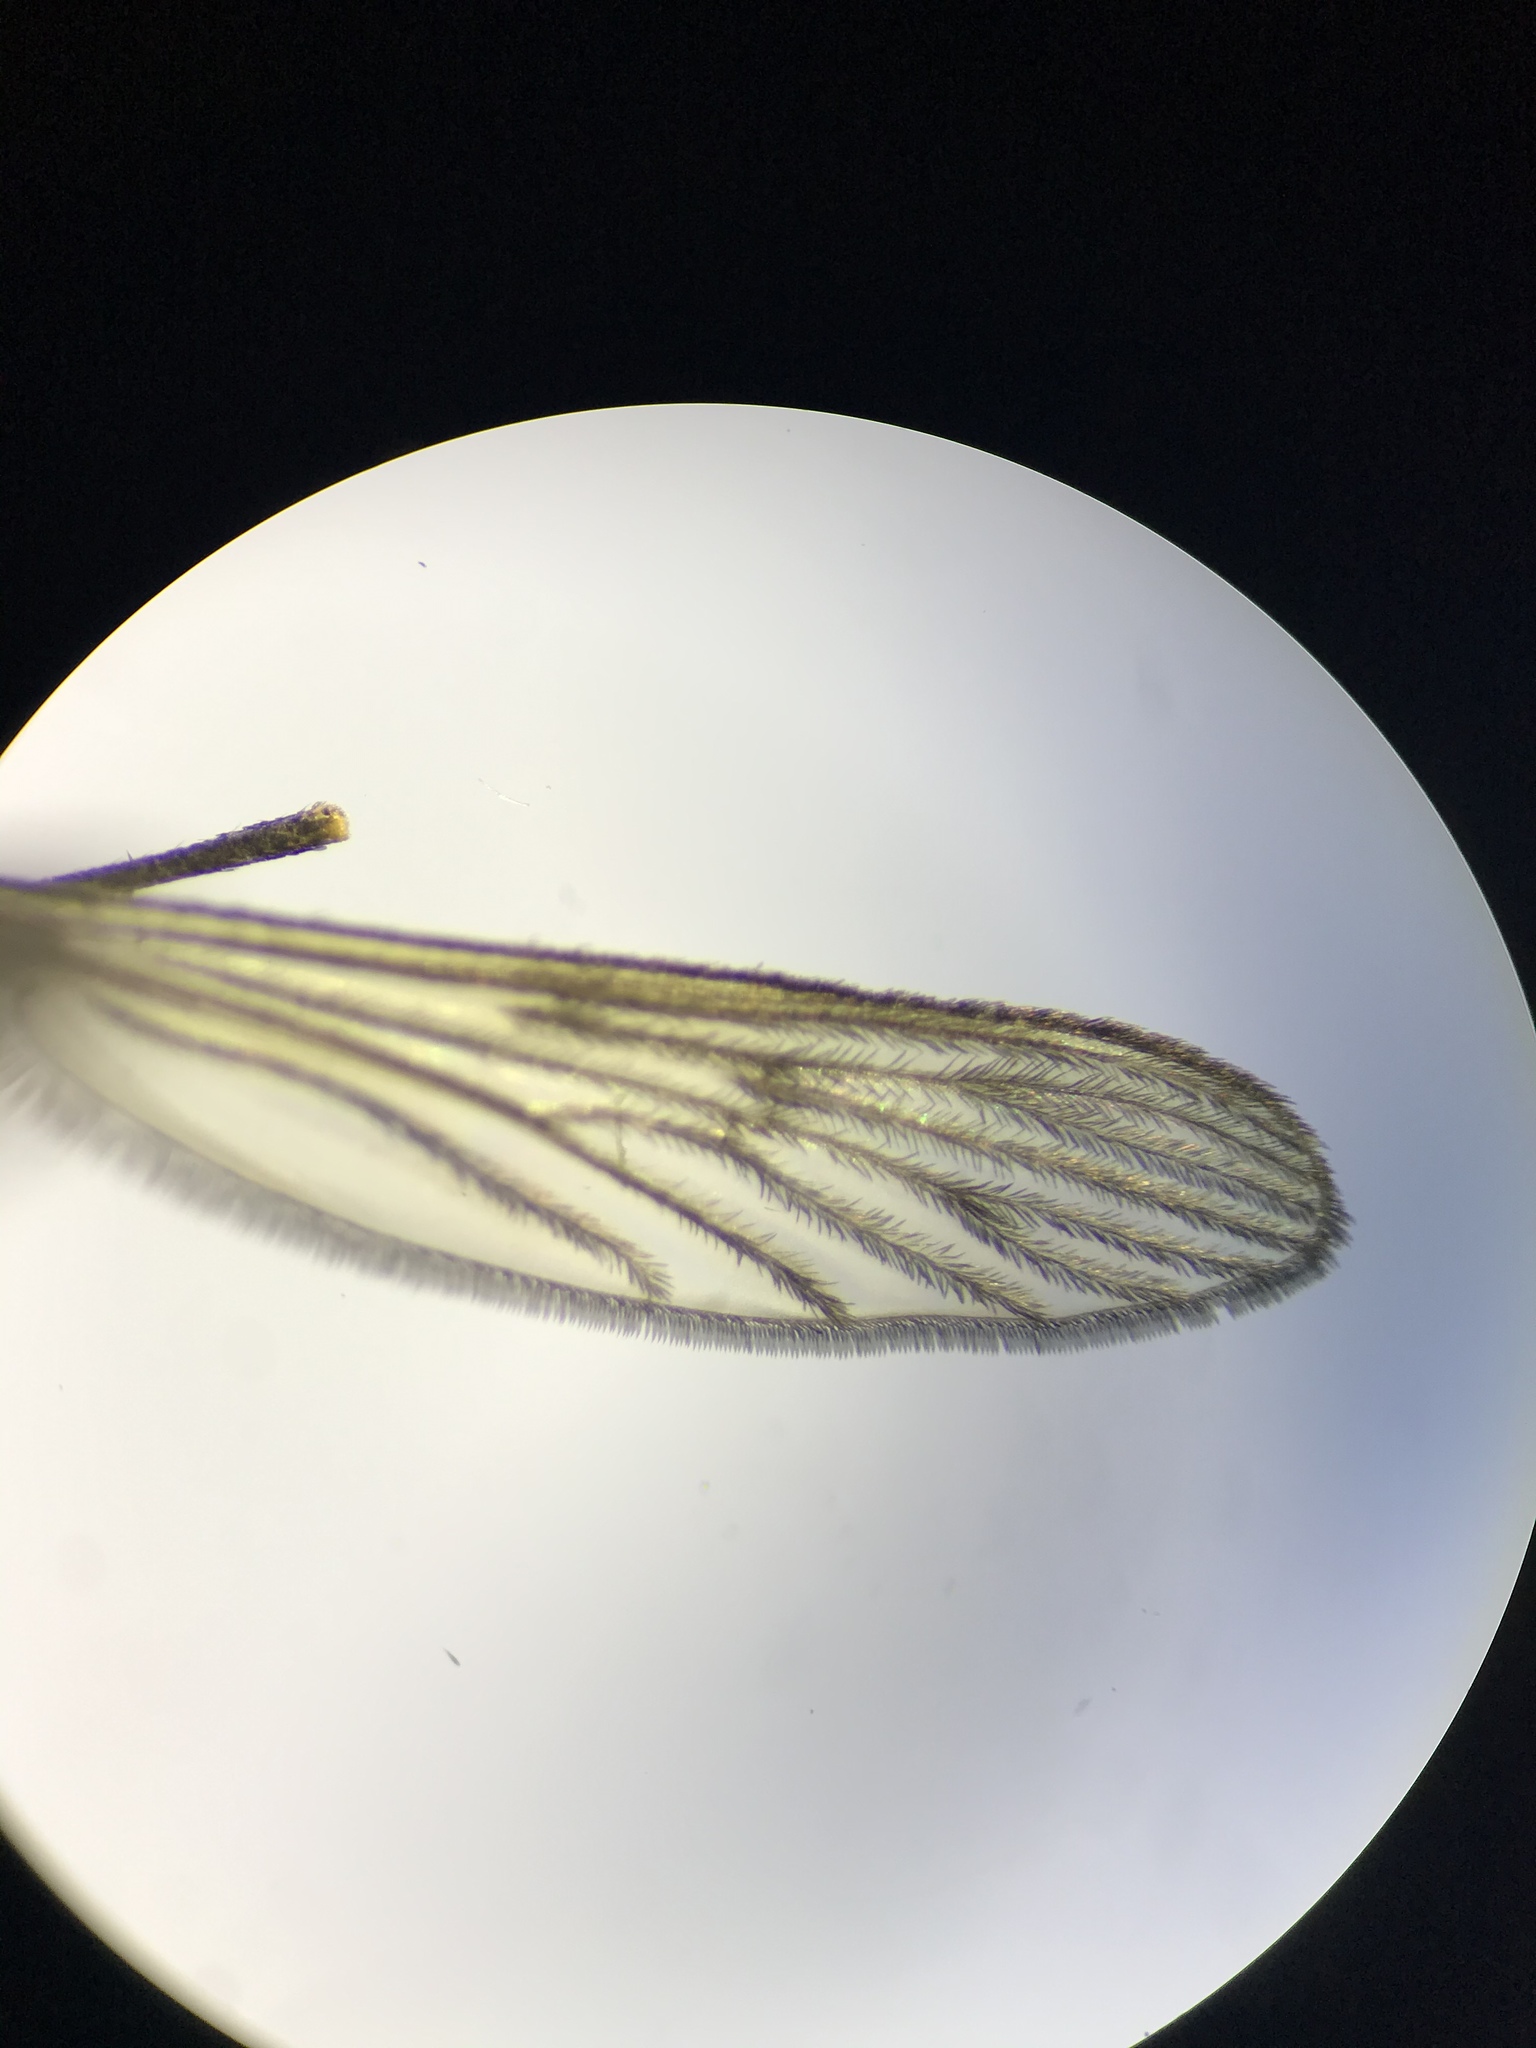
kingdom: Animalia
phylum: Arthropoda
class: Insecta
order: Diptera
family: Culicidae
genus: Anopheles
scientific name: Anopheles quadrimaculatus
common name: Common malaria mosquito
